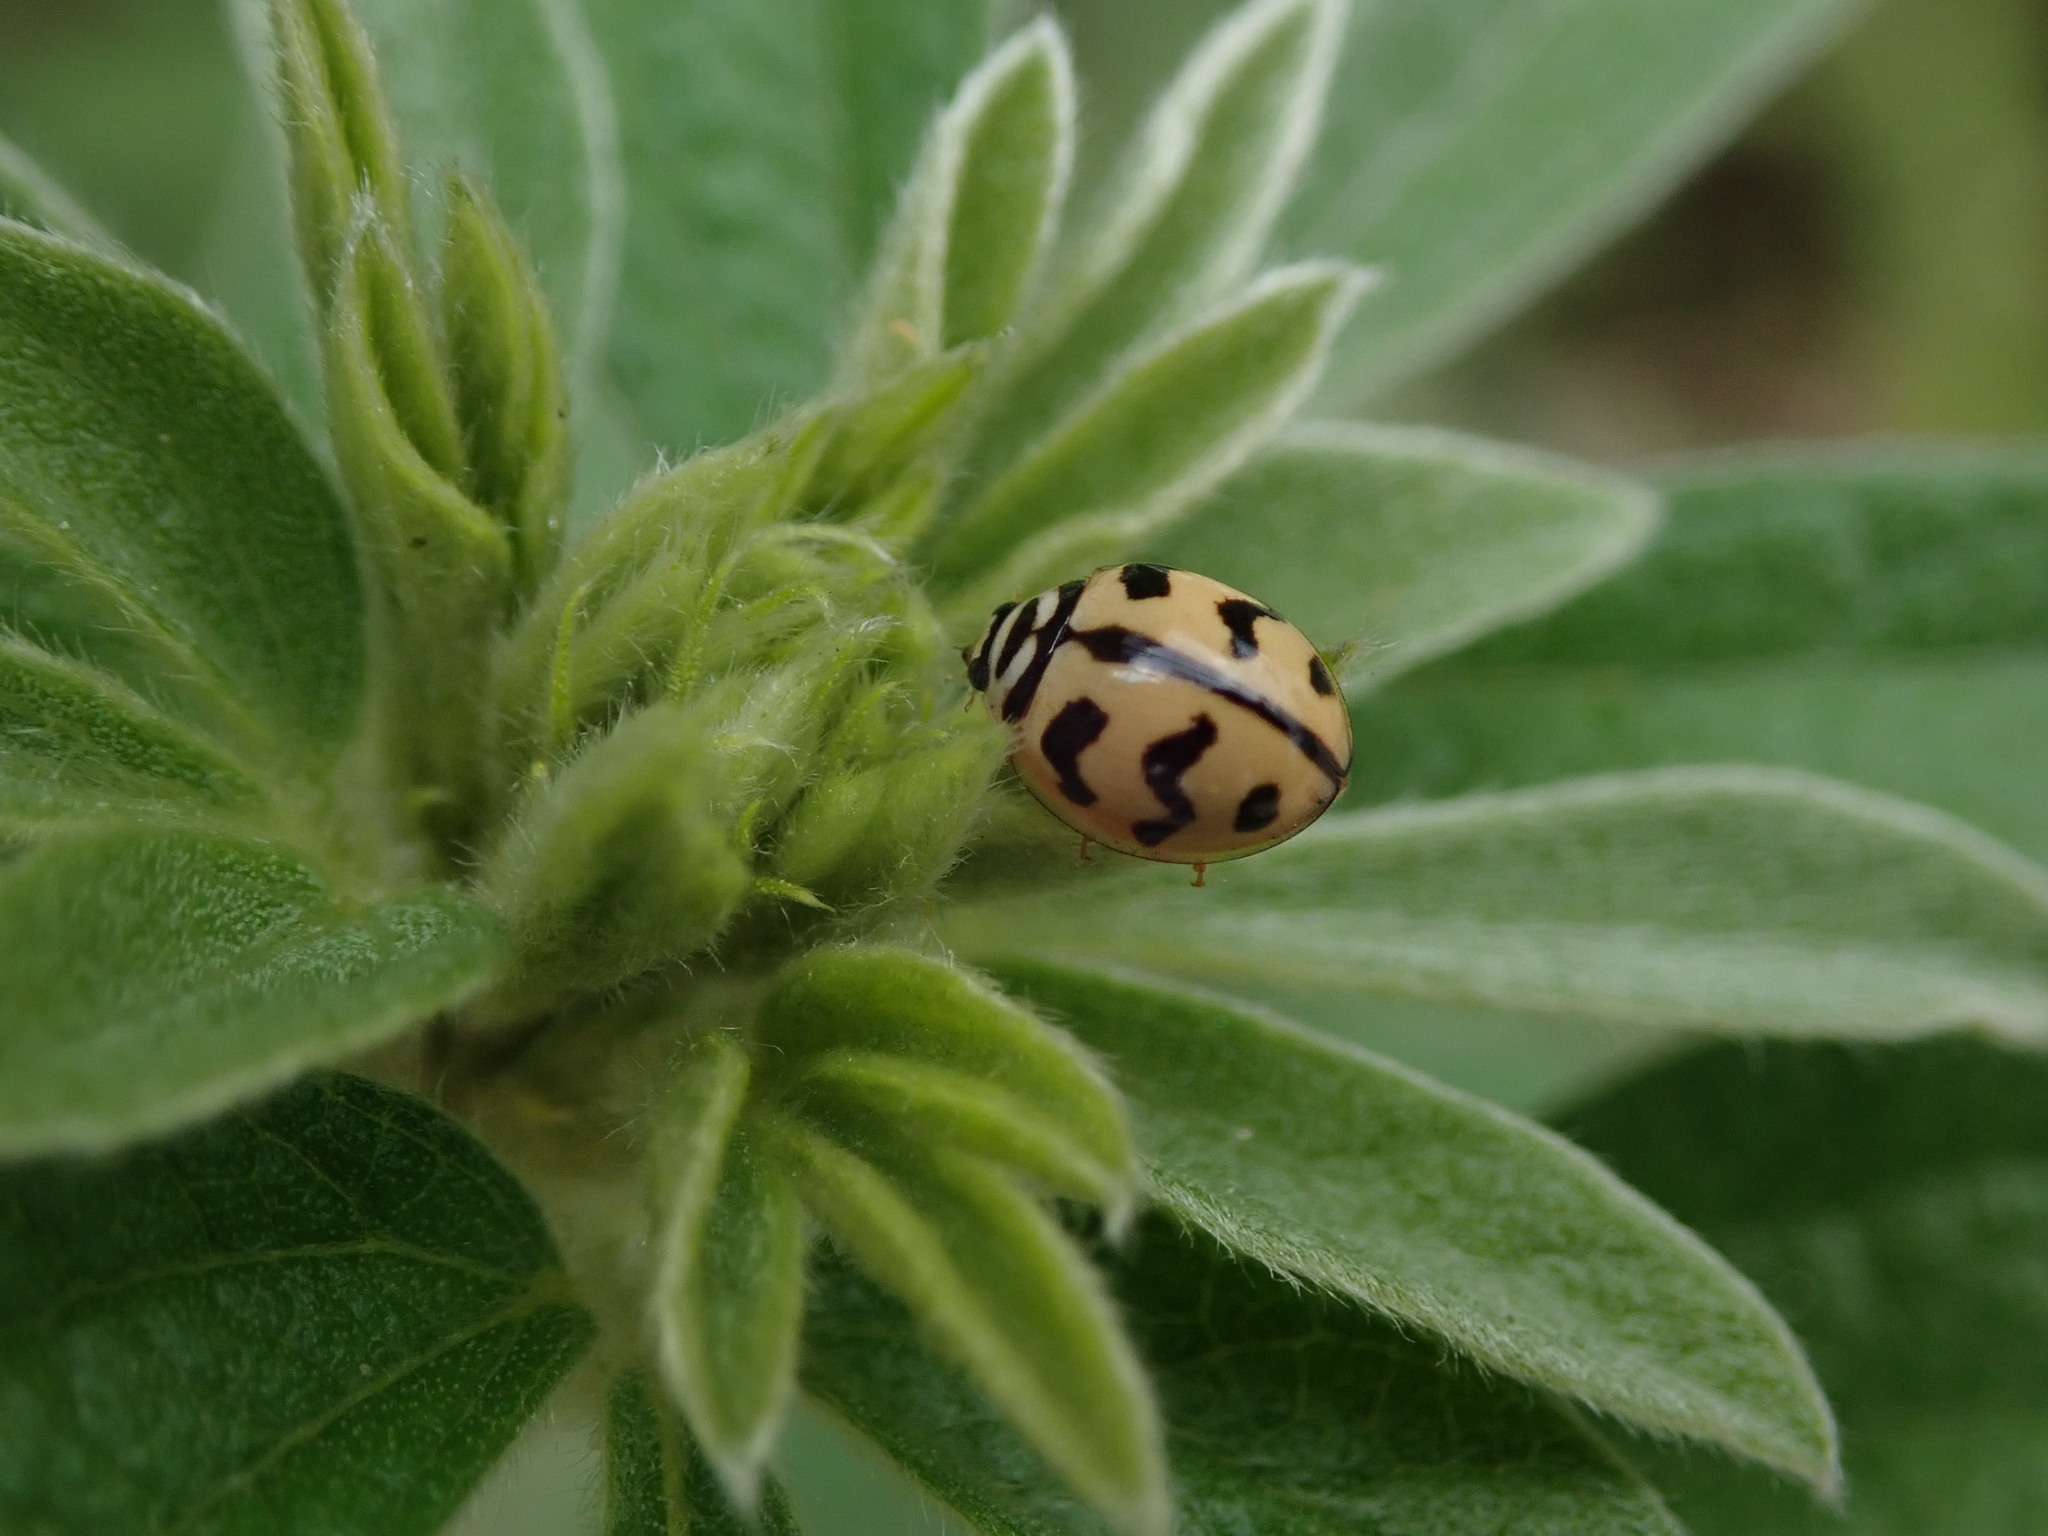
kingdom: Animalia
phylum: Arthropoda
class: Insecta
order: Coleoptera
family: Coccinellidae
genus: Cheilomenes
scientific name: Cheilomenes sexmaculata
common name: Ladybird beetle
